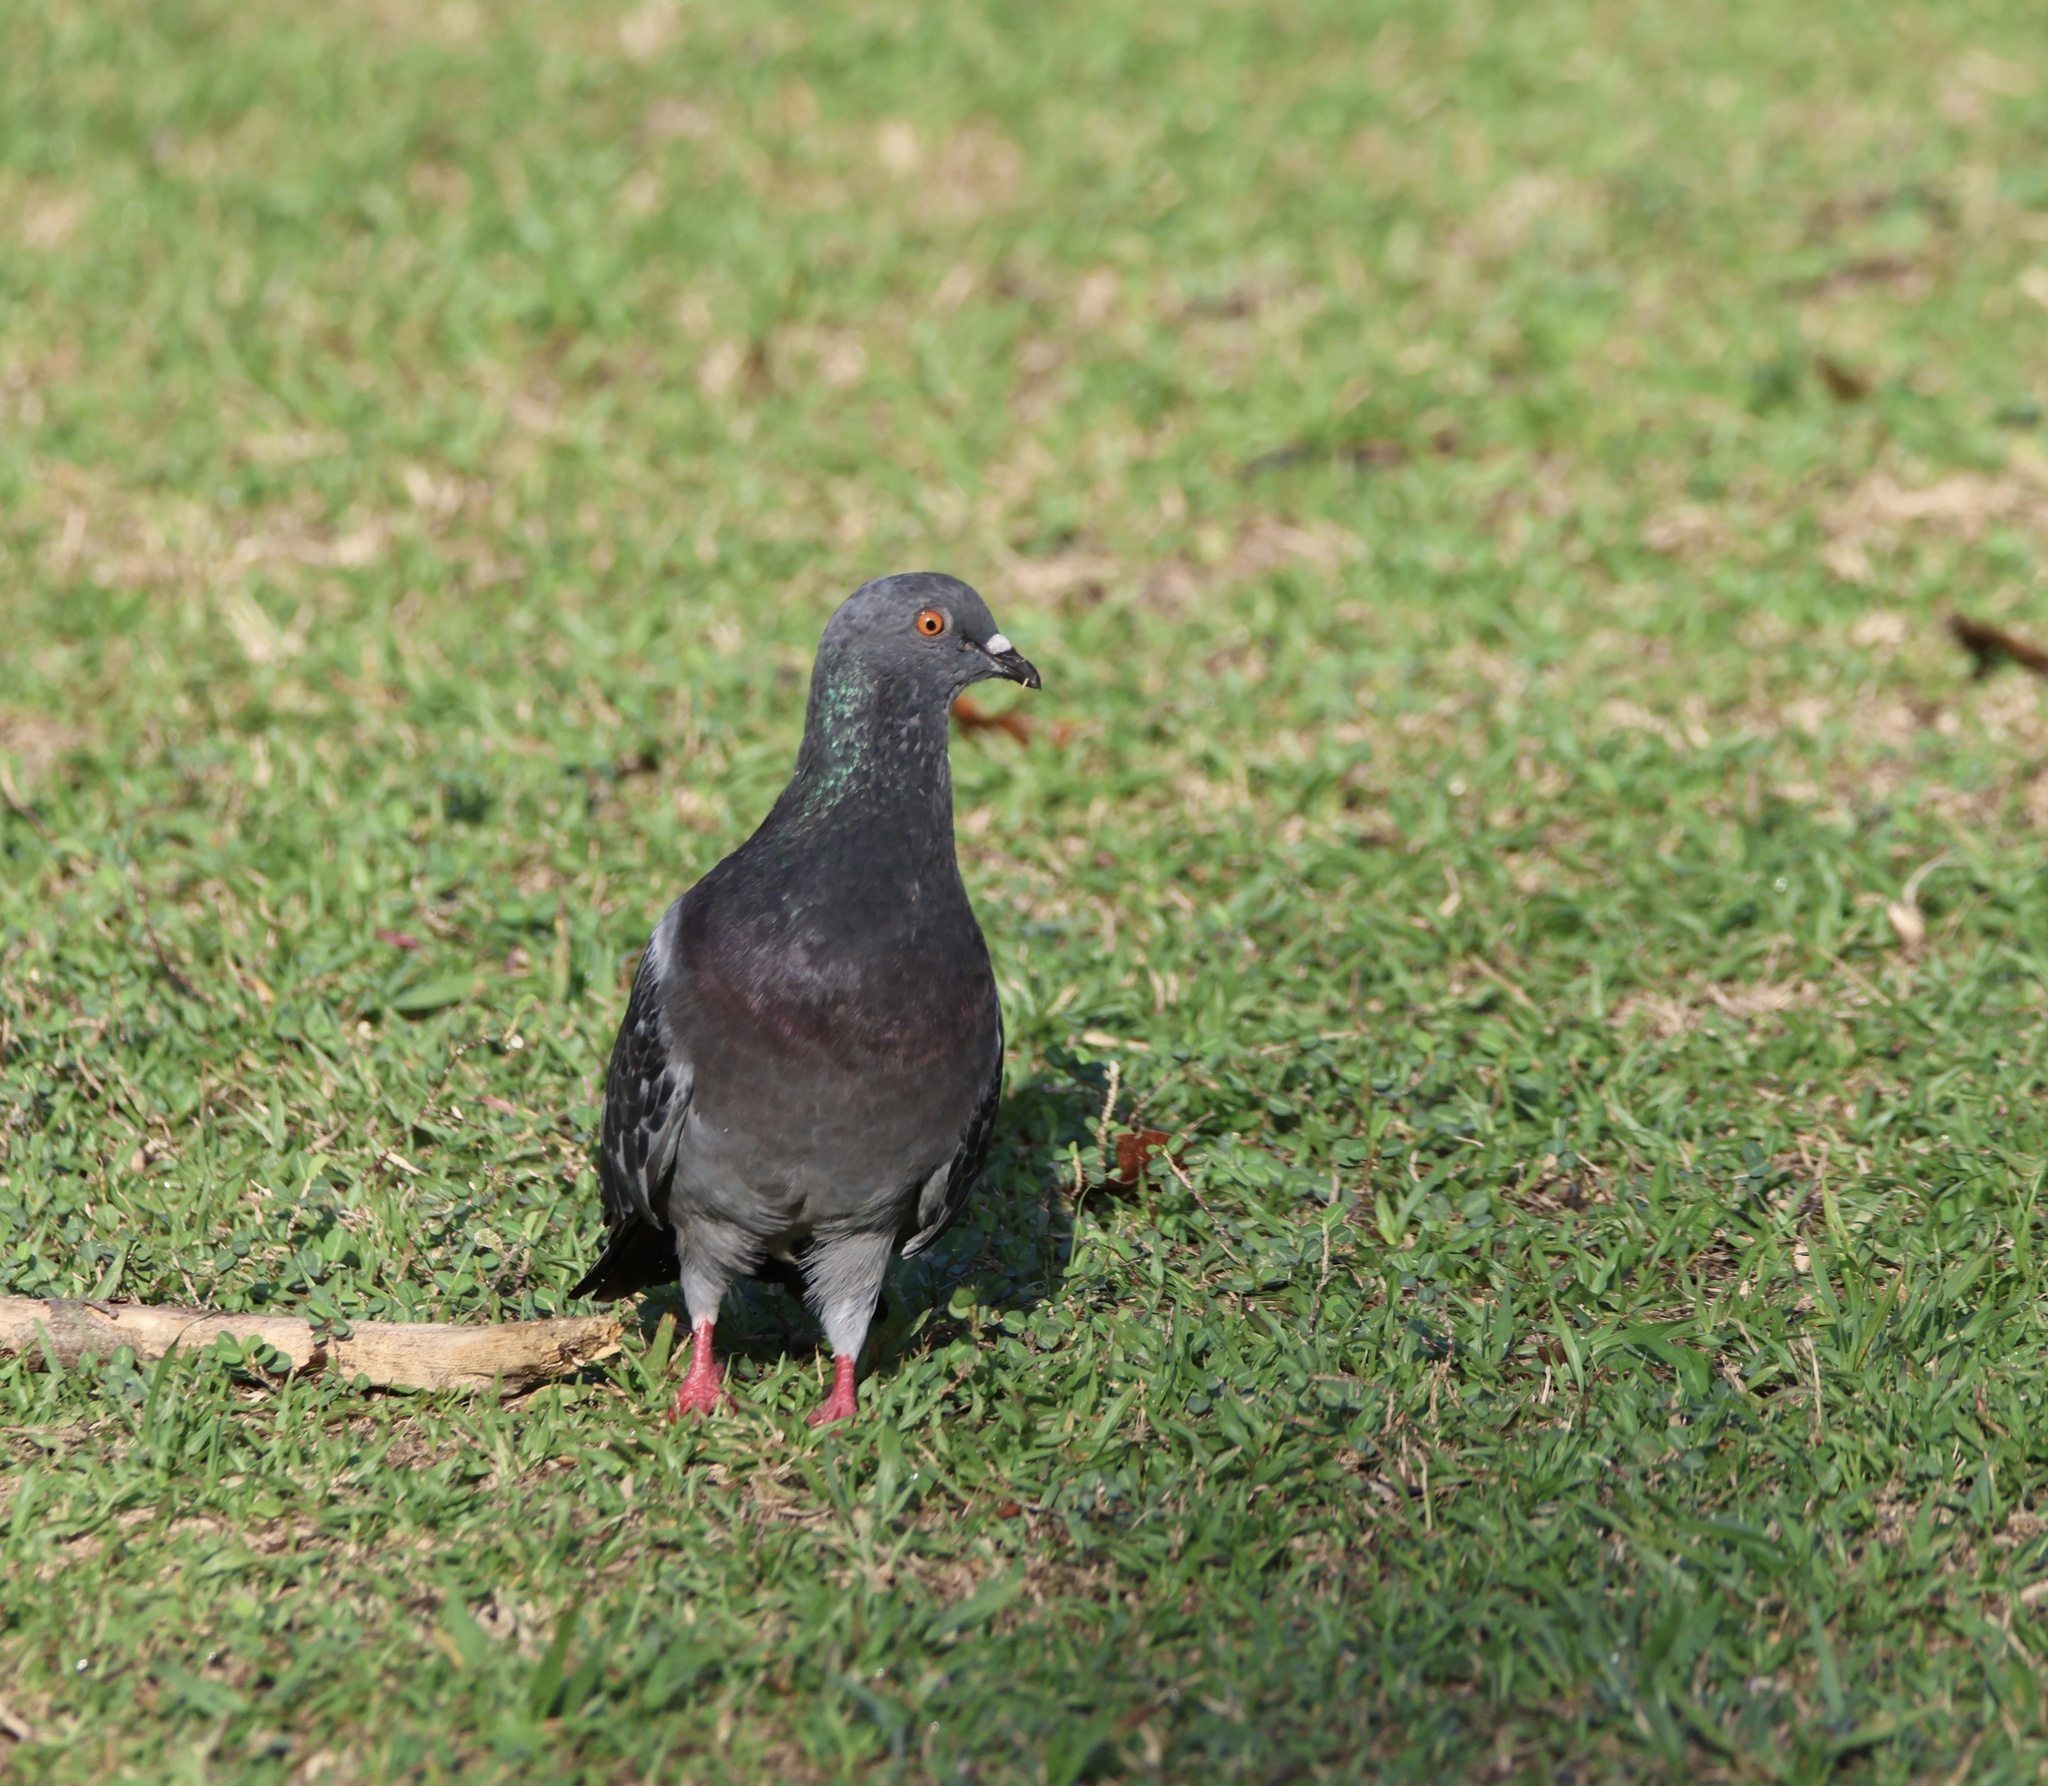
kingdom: Animalia
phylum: Chordata
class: Aves
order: Columbiformes
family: Columbidae
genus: Columba
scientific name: Columba livia
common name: Rock pigeon
